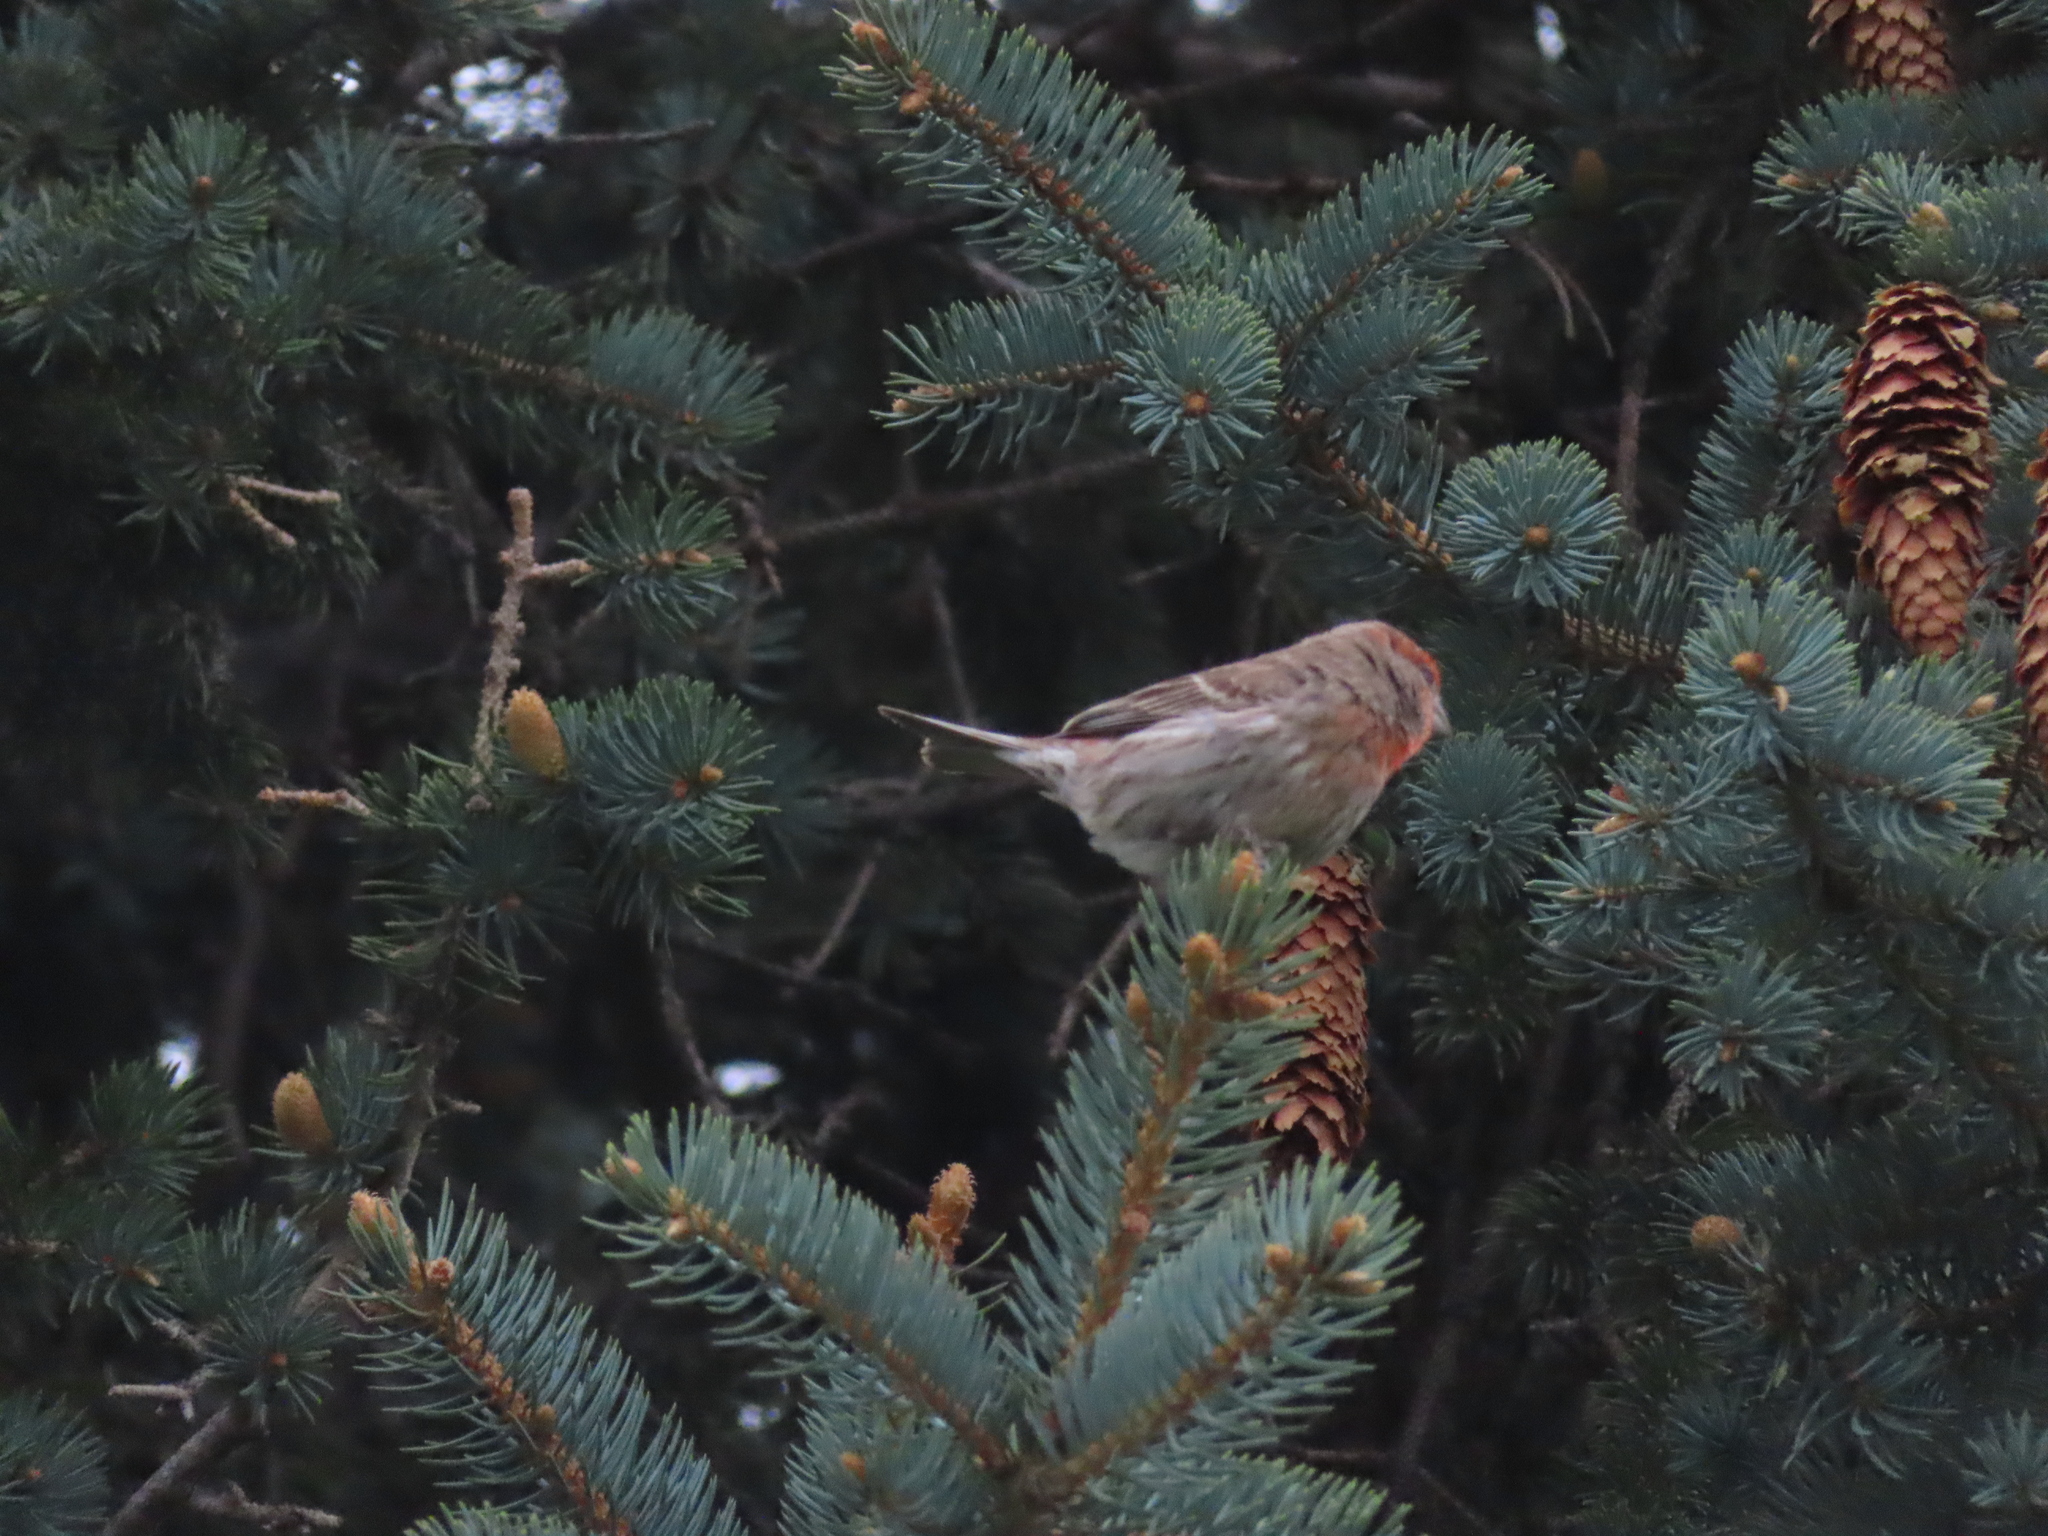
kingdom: Animalia
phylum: Chordata
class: Aves
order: Passeriformes
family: Fringillidae
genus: Haemorhous
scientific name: Haemorhous mexicanus
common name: House finch
